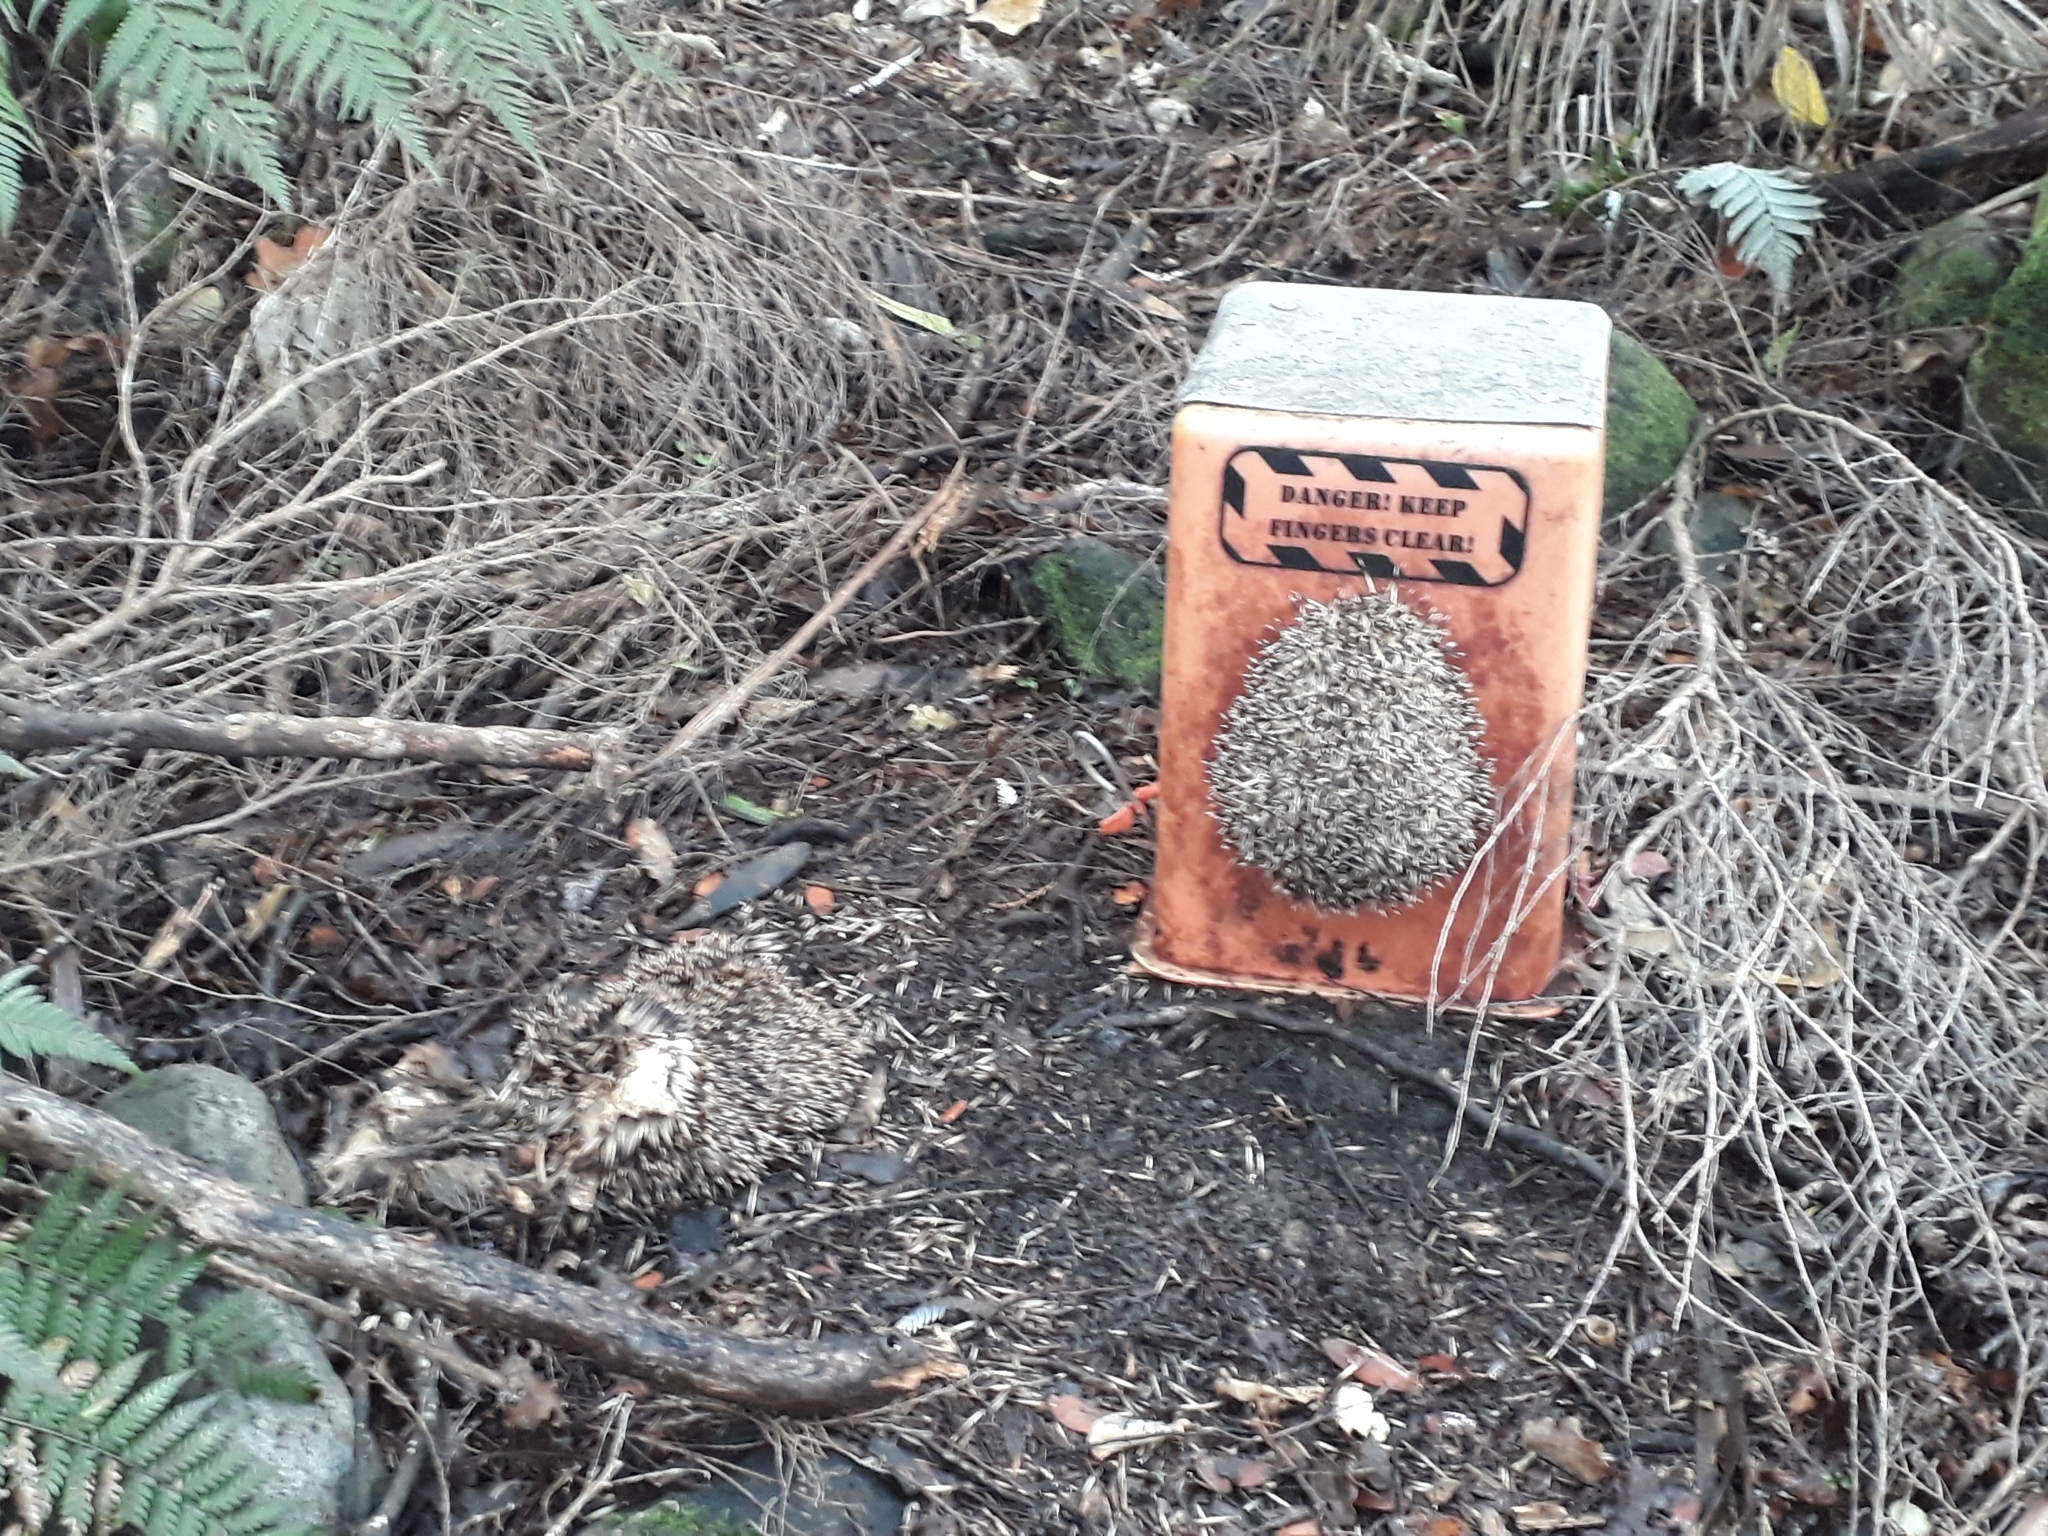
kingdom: Animalia
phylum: Chordata
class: Mammalia
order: Erinaceomorpha
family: Erinaceidae
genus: Erinaceus
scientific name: Erinaceus europaeus
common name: West european hedgehog
